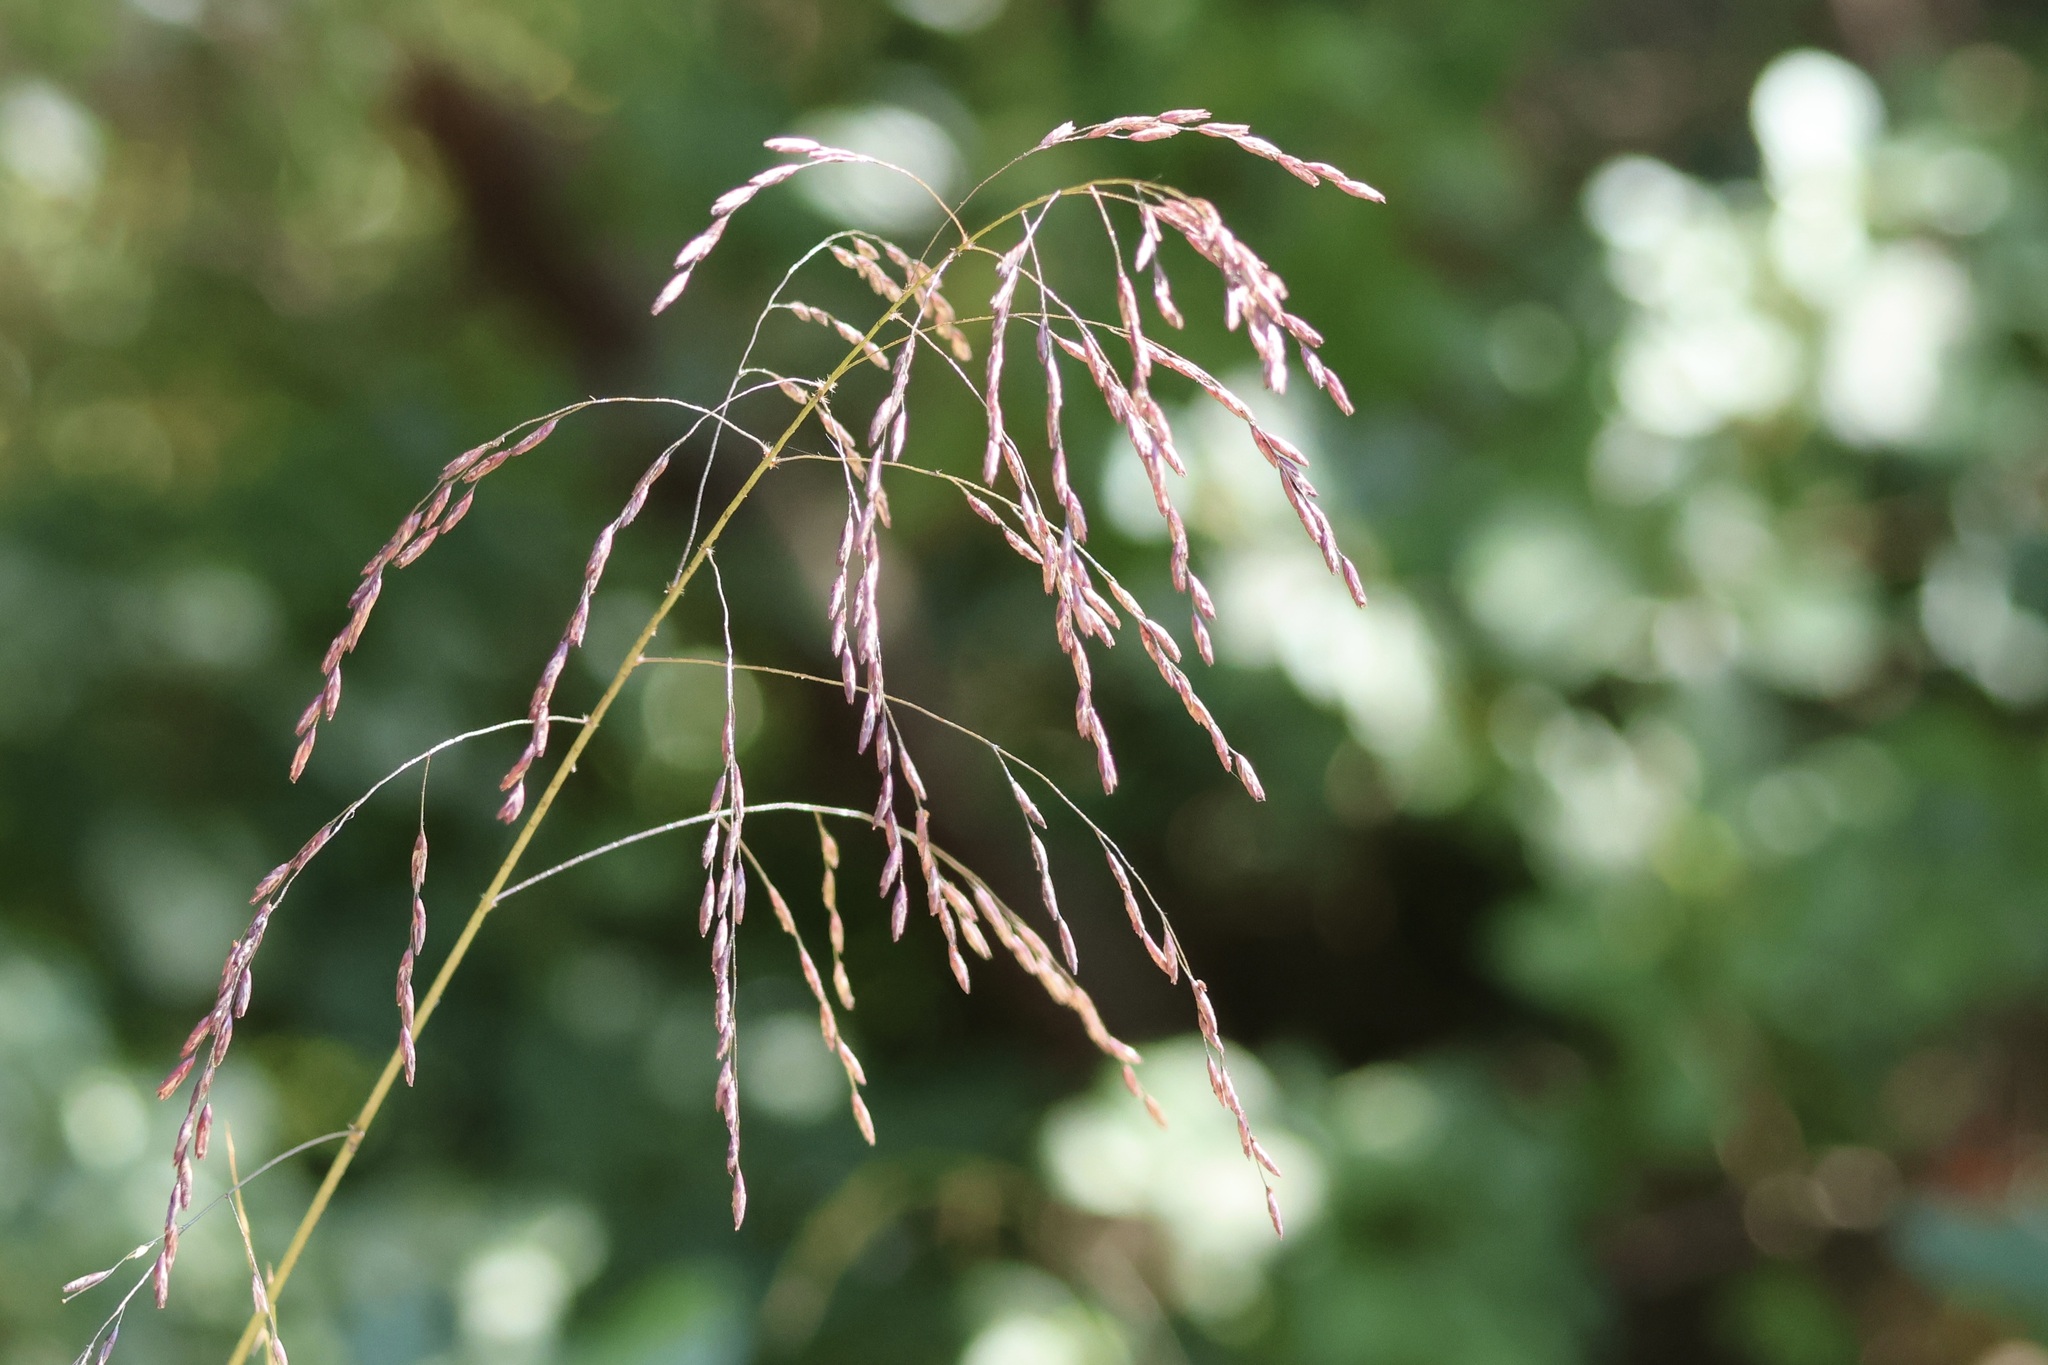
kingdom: Plantae
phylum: Tracheophyta
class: Liliopsida
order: Poales
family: Poaceae
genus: Tridens
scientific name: Tridens flavus
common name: Purpletop
